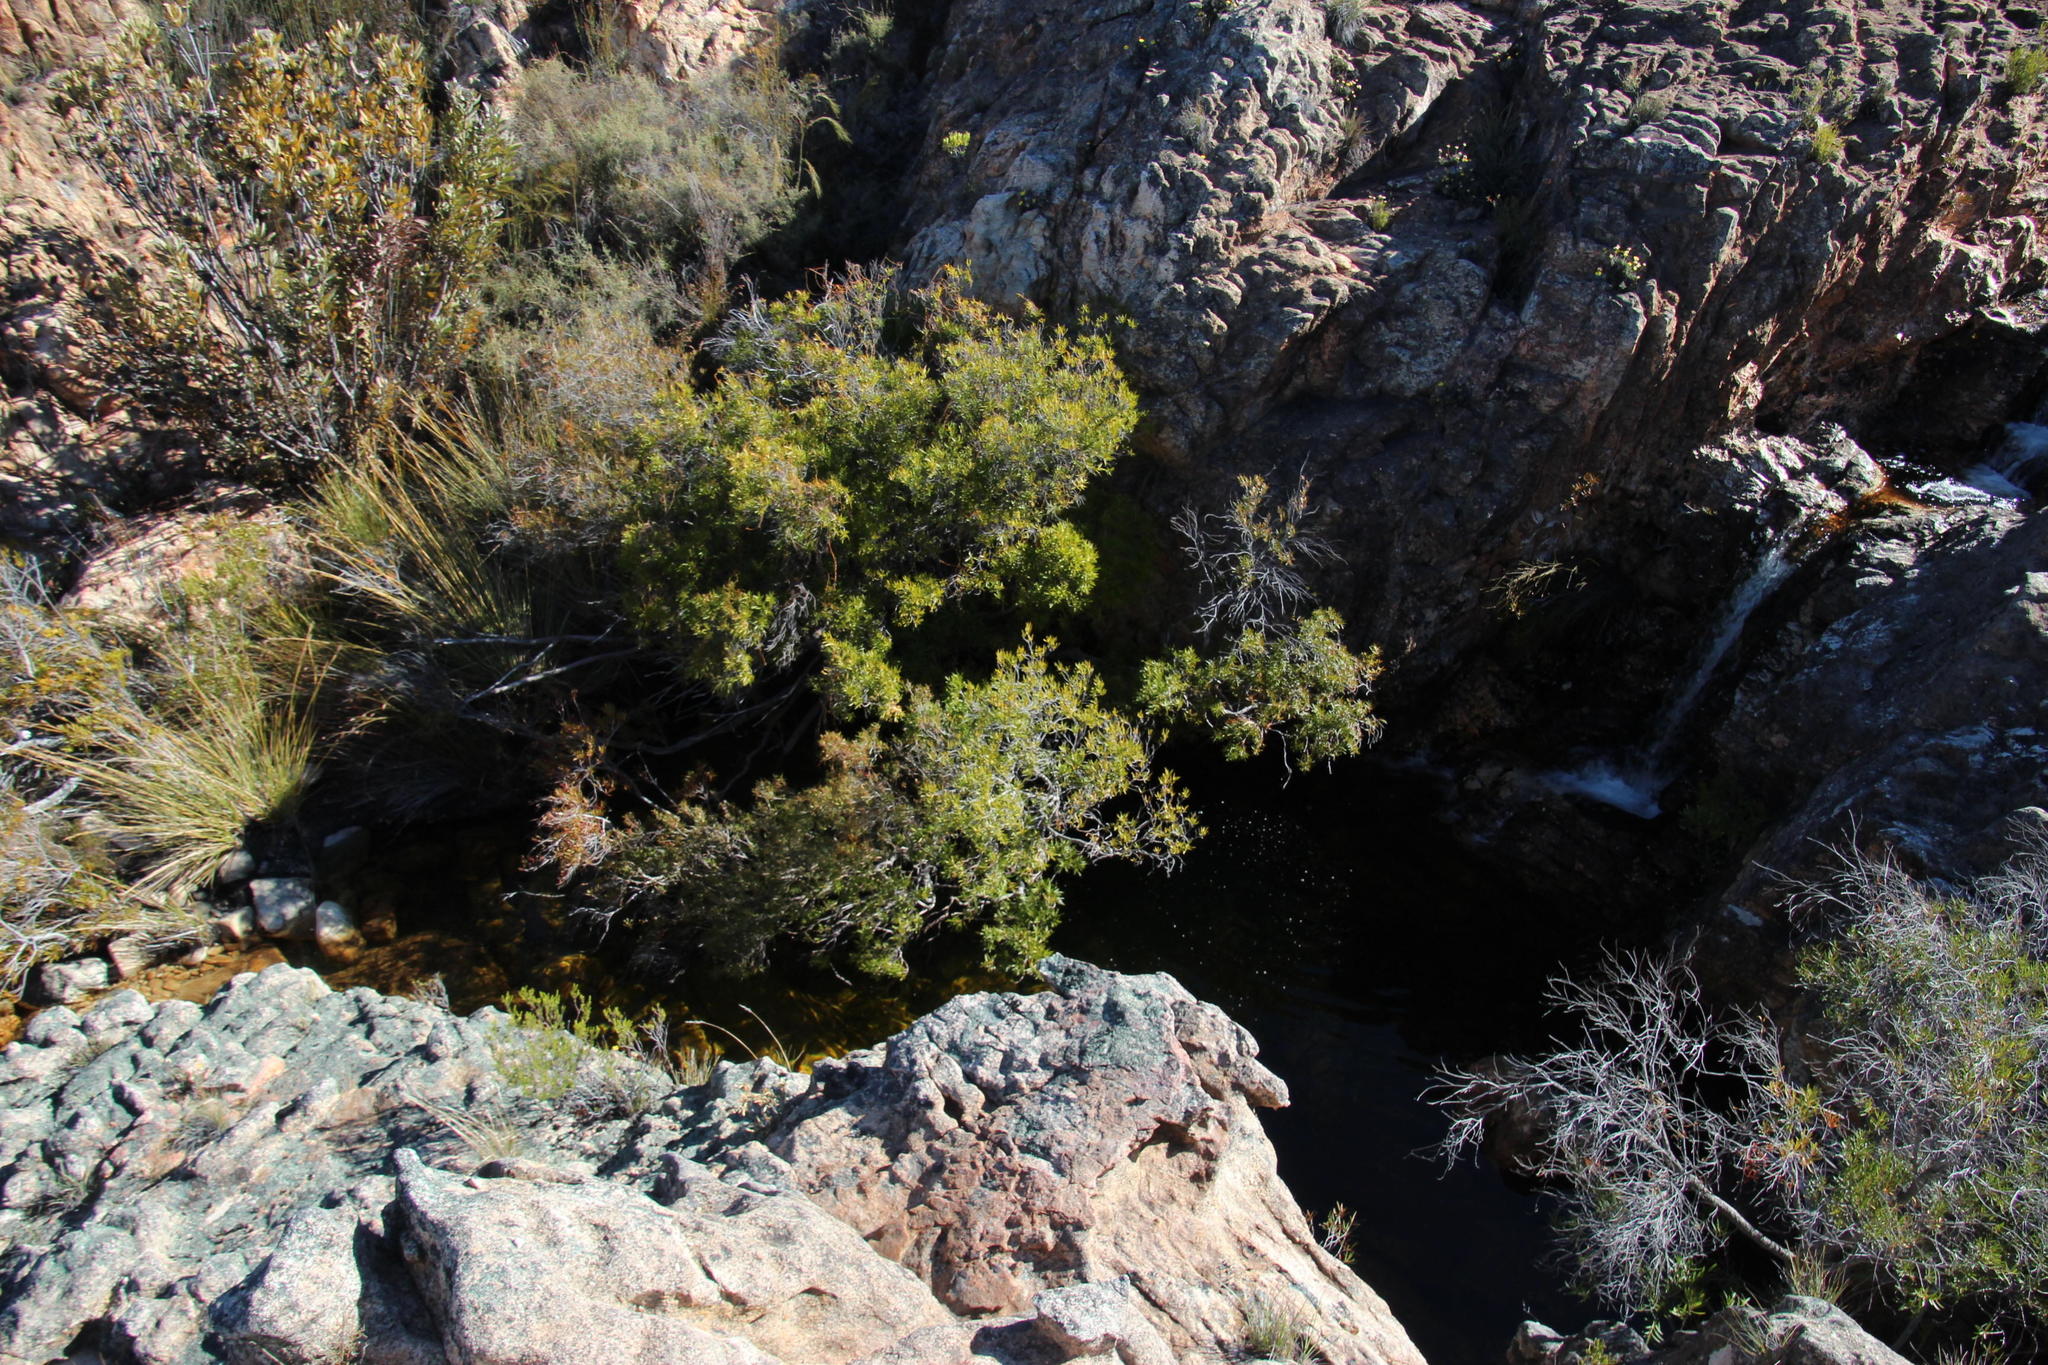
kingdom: Plantae
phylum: Tracheophyta
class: Magnoliopsida
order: Myrtales
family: Myrtaceae
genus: Callistemon
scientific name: Callistemon lanceolatus
